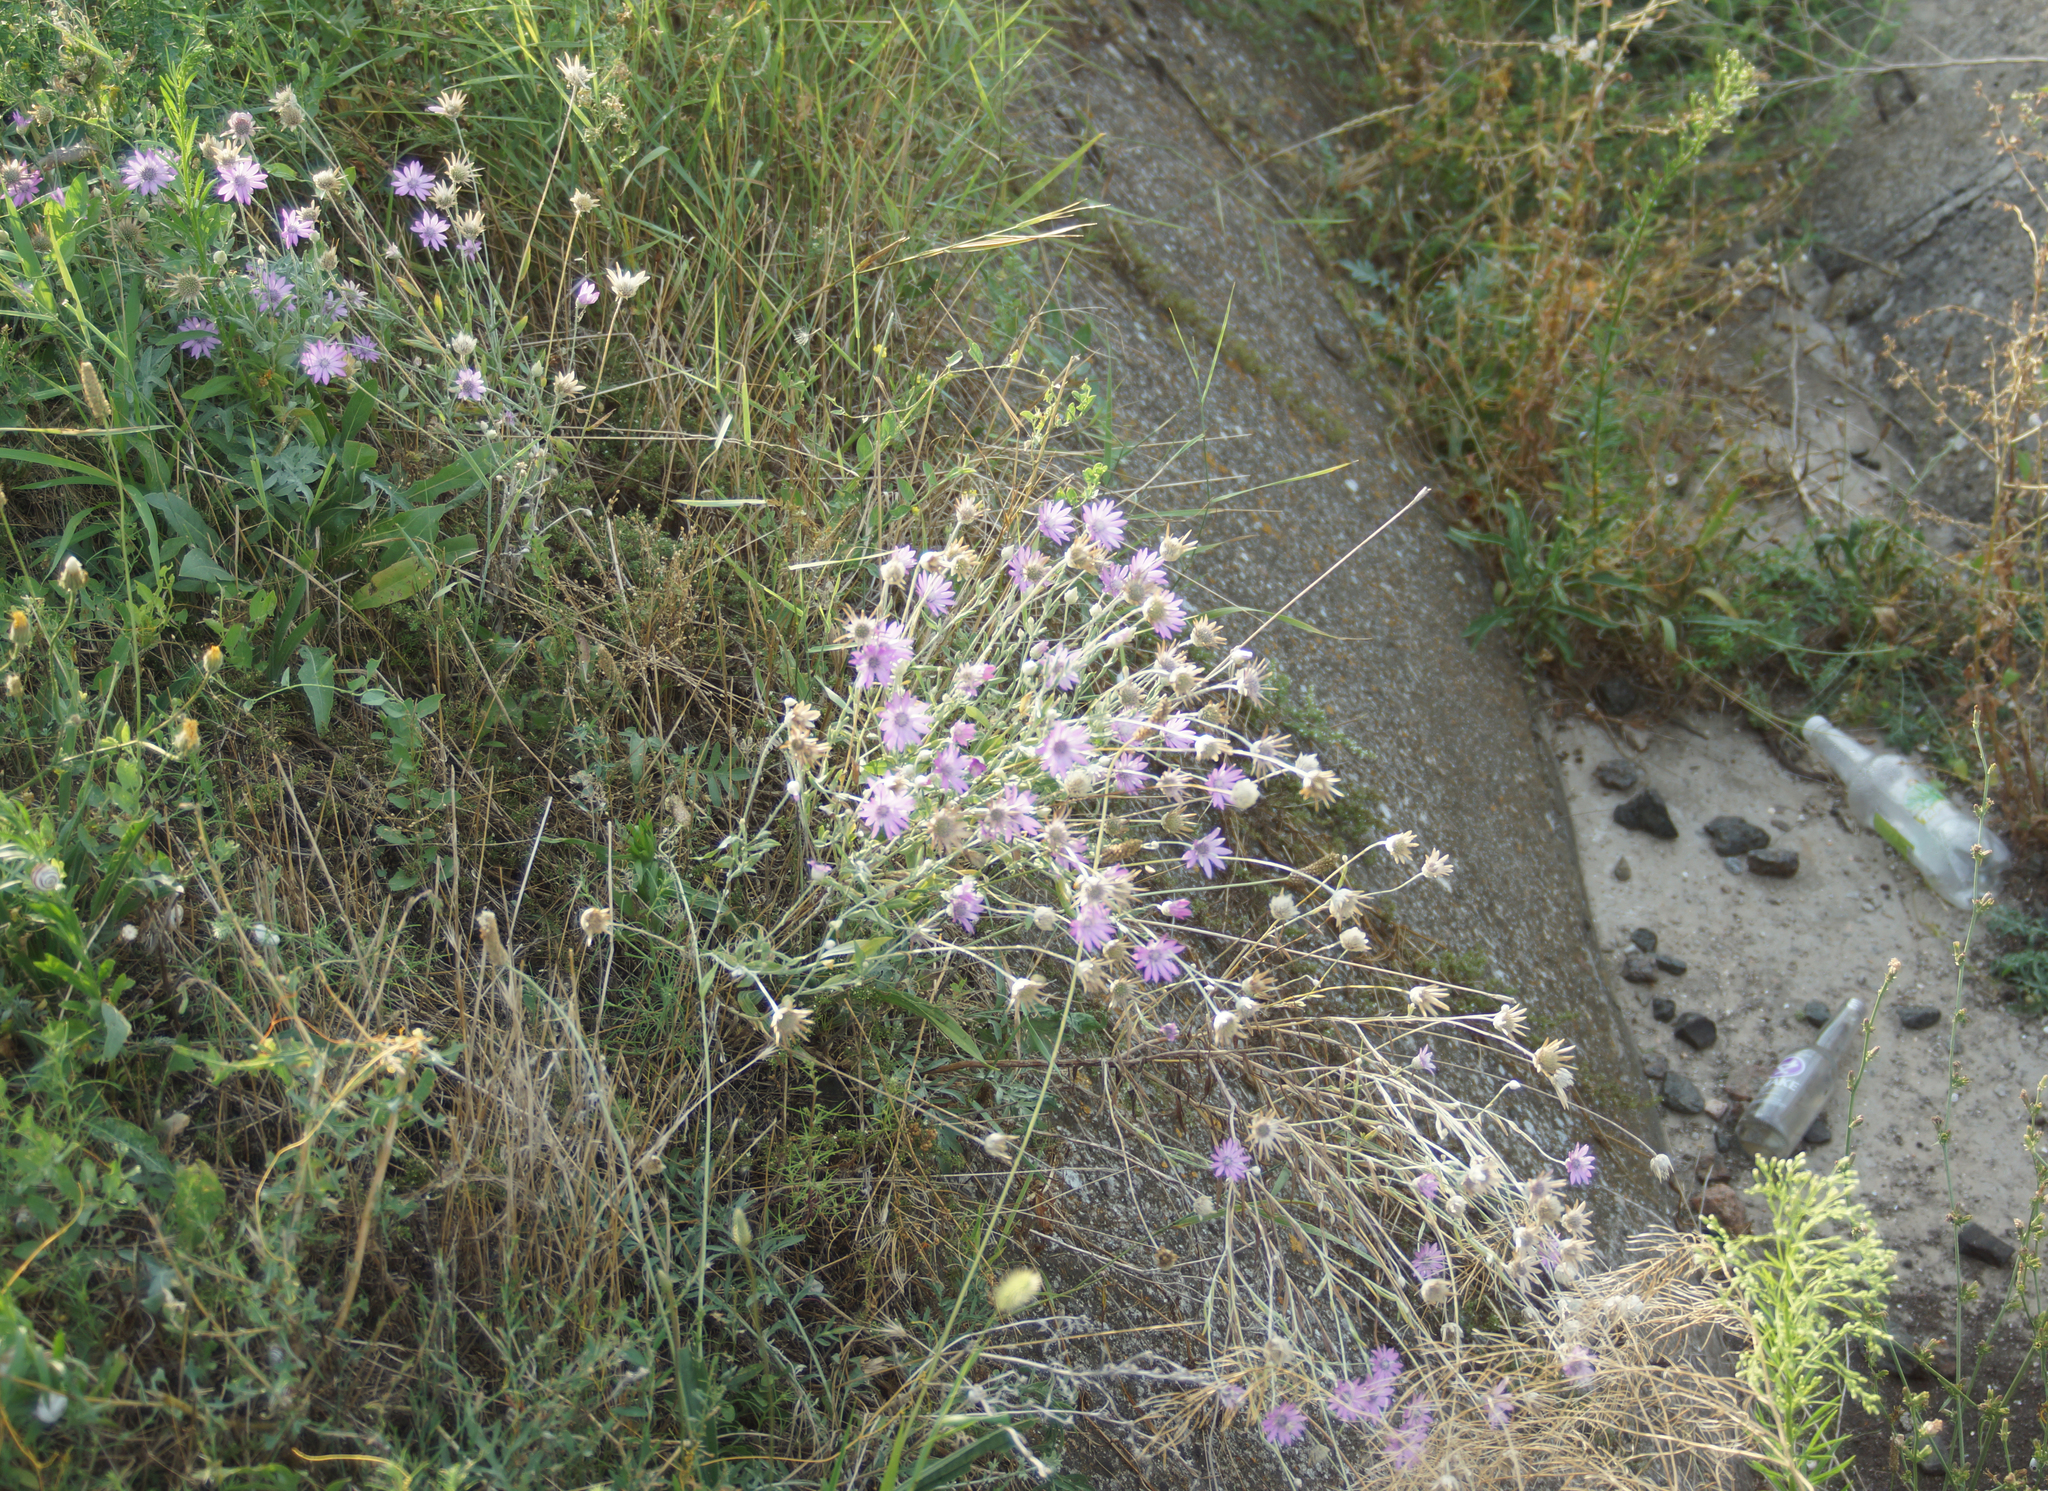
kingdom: Plantae
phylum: Tracheophyta
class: Magnoliopsida
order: Asterales
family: Asteraceae
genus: Xeranthemum
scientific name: Xeranthemum annuum
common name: Immortelle
